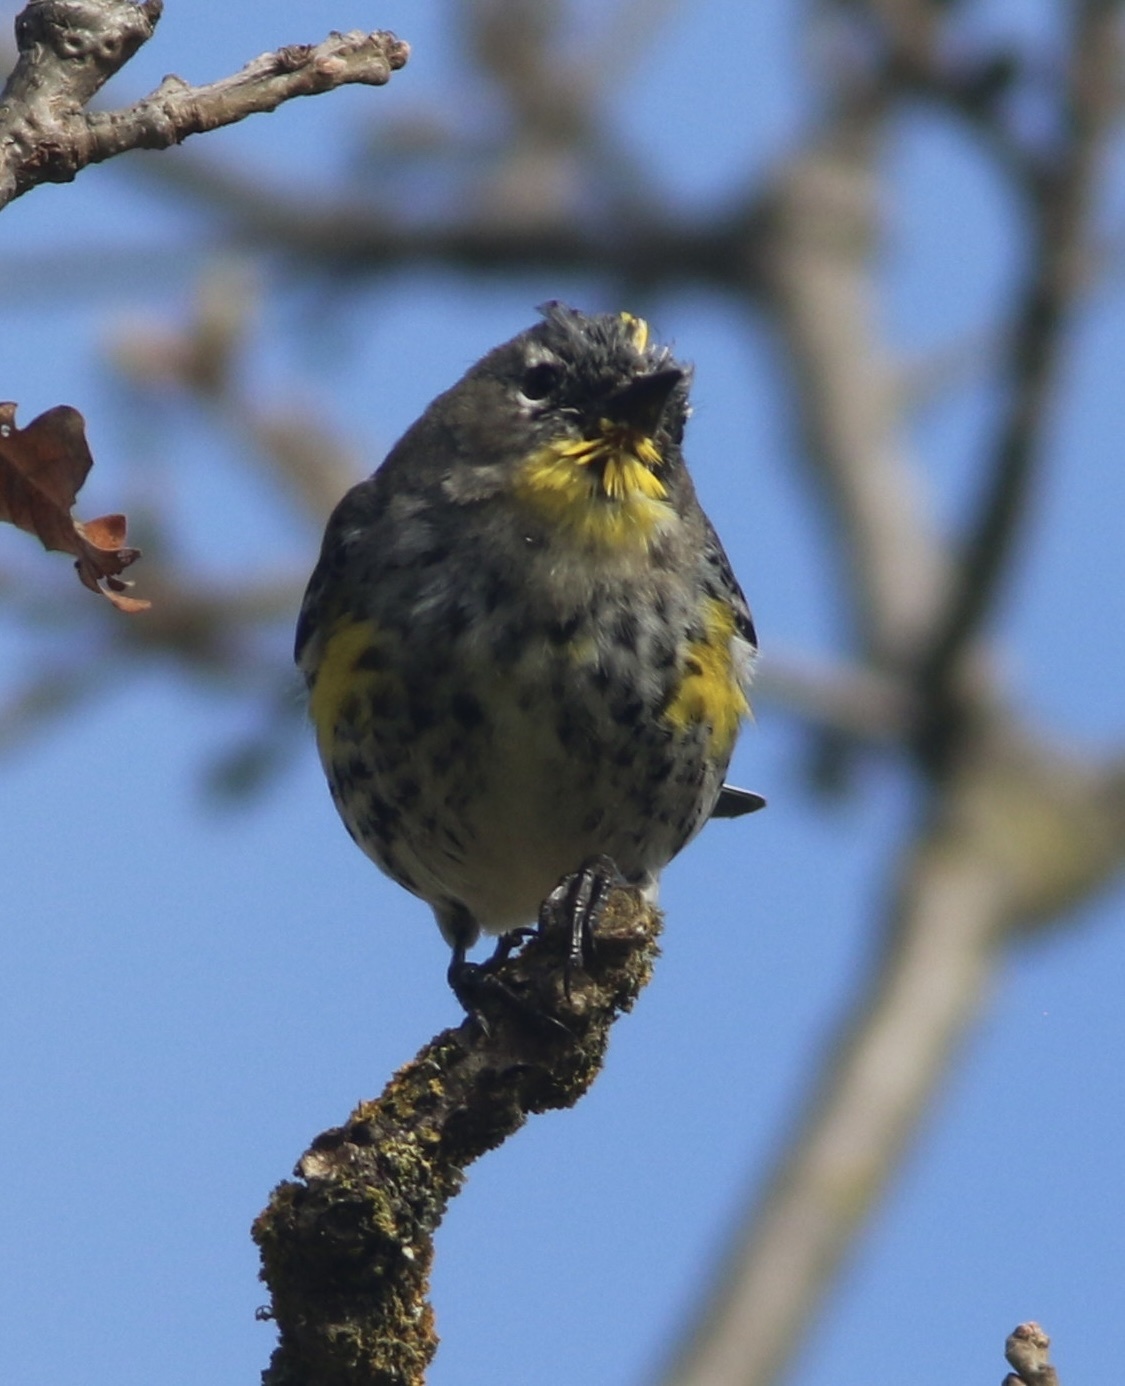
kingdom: Animalia
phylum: Chordata
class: Aves
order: Passeriformes
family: Parulidae
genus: Setophaga
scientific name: Setophaga coronata
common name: Myrtle warbler
